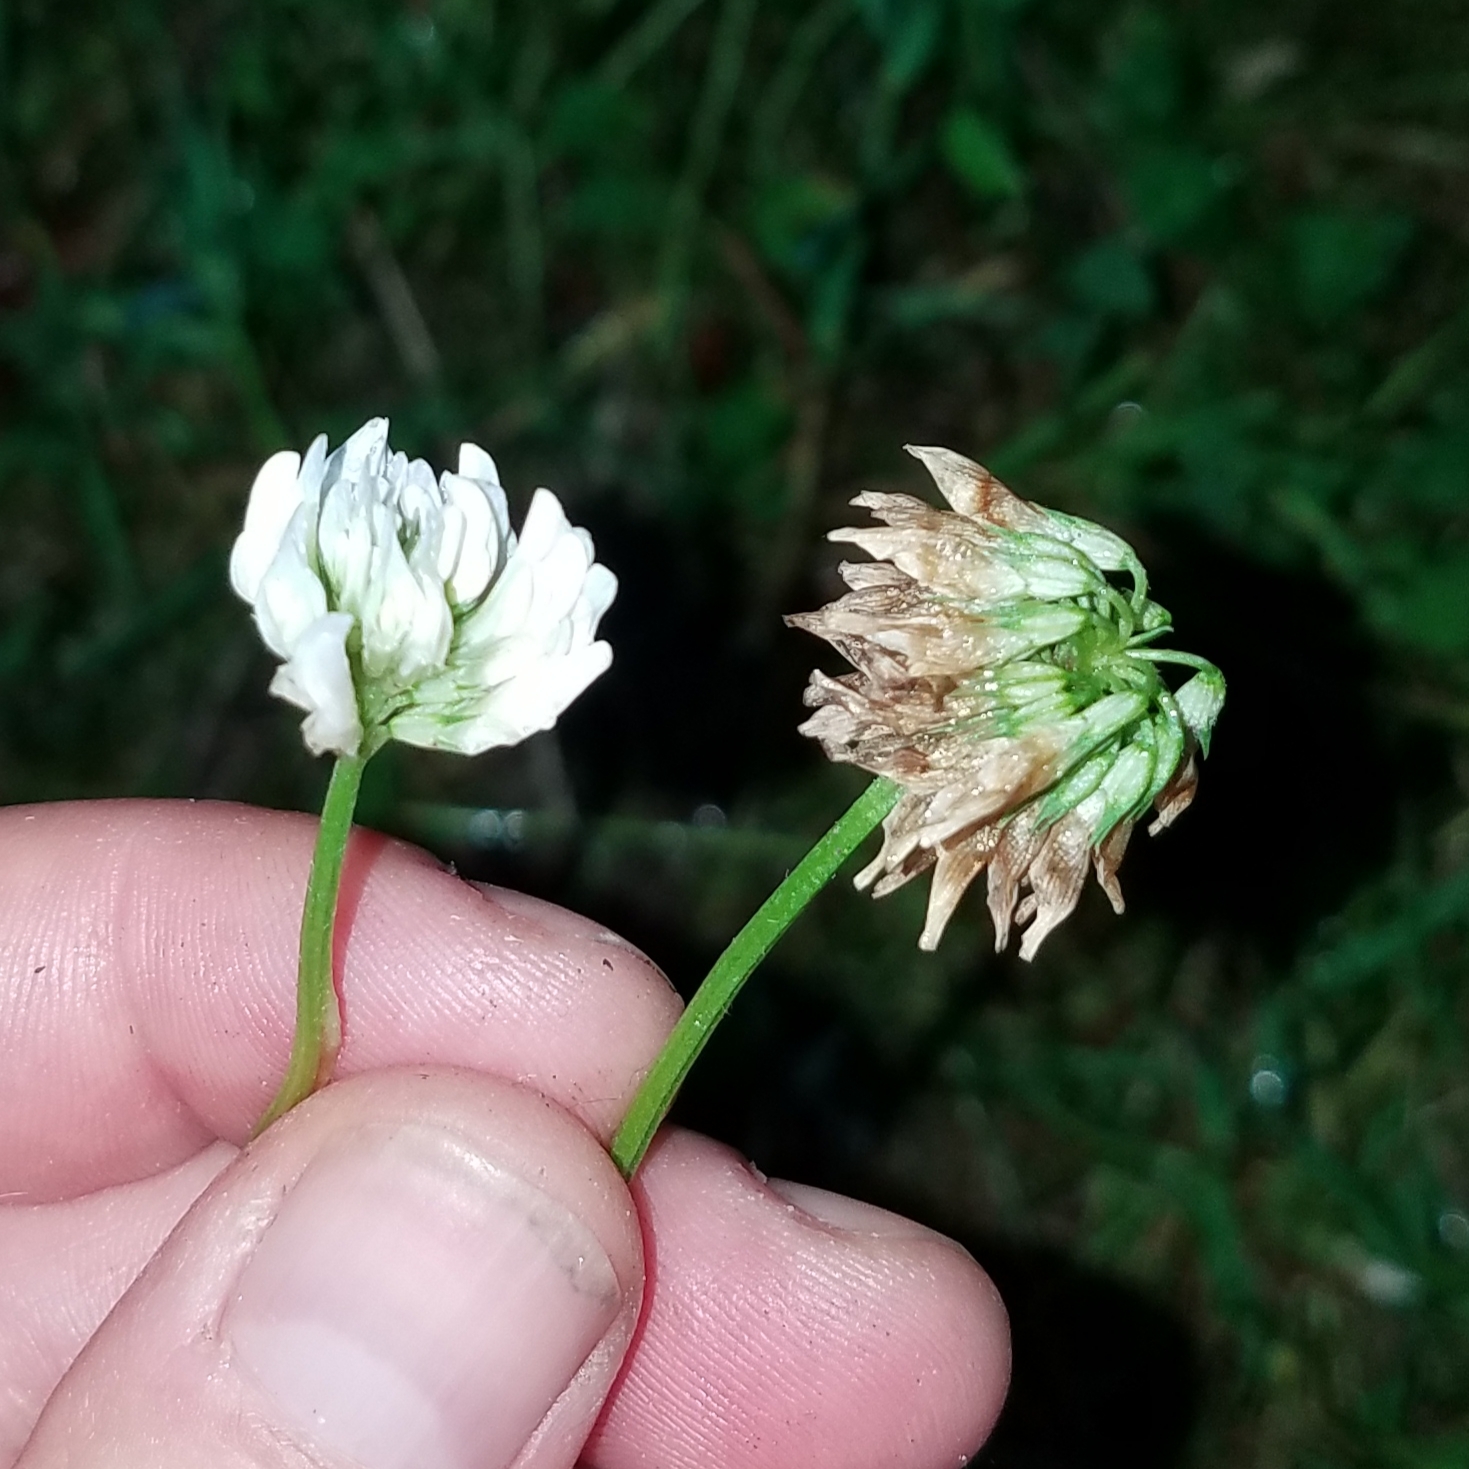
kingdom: Plantae
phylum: Tracheophyta
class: Magnoliopsida
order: Fabales
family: Fabaceae
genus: Trifolium
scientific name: Trifolium repens
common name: White clover
